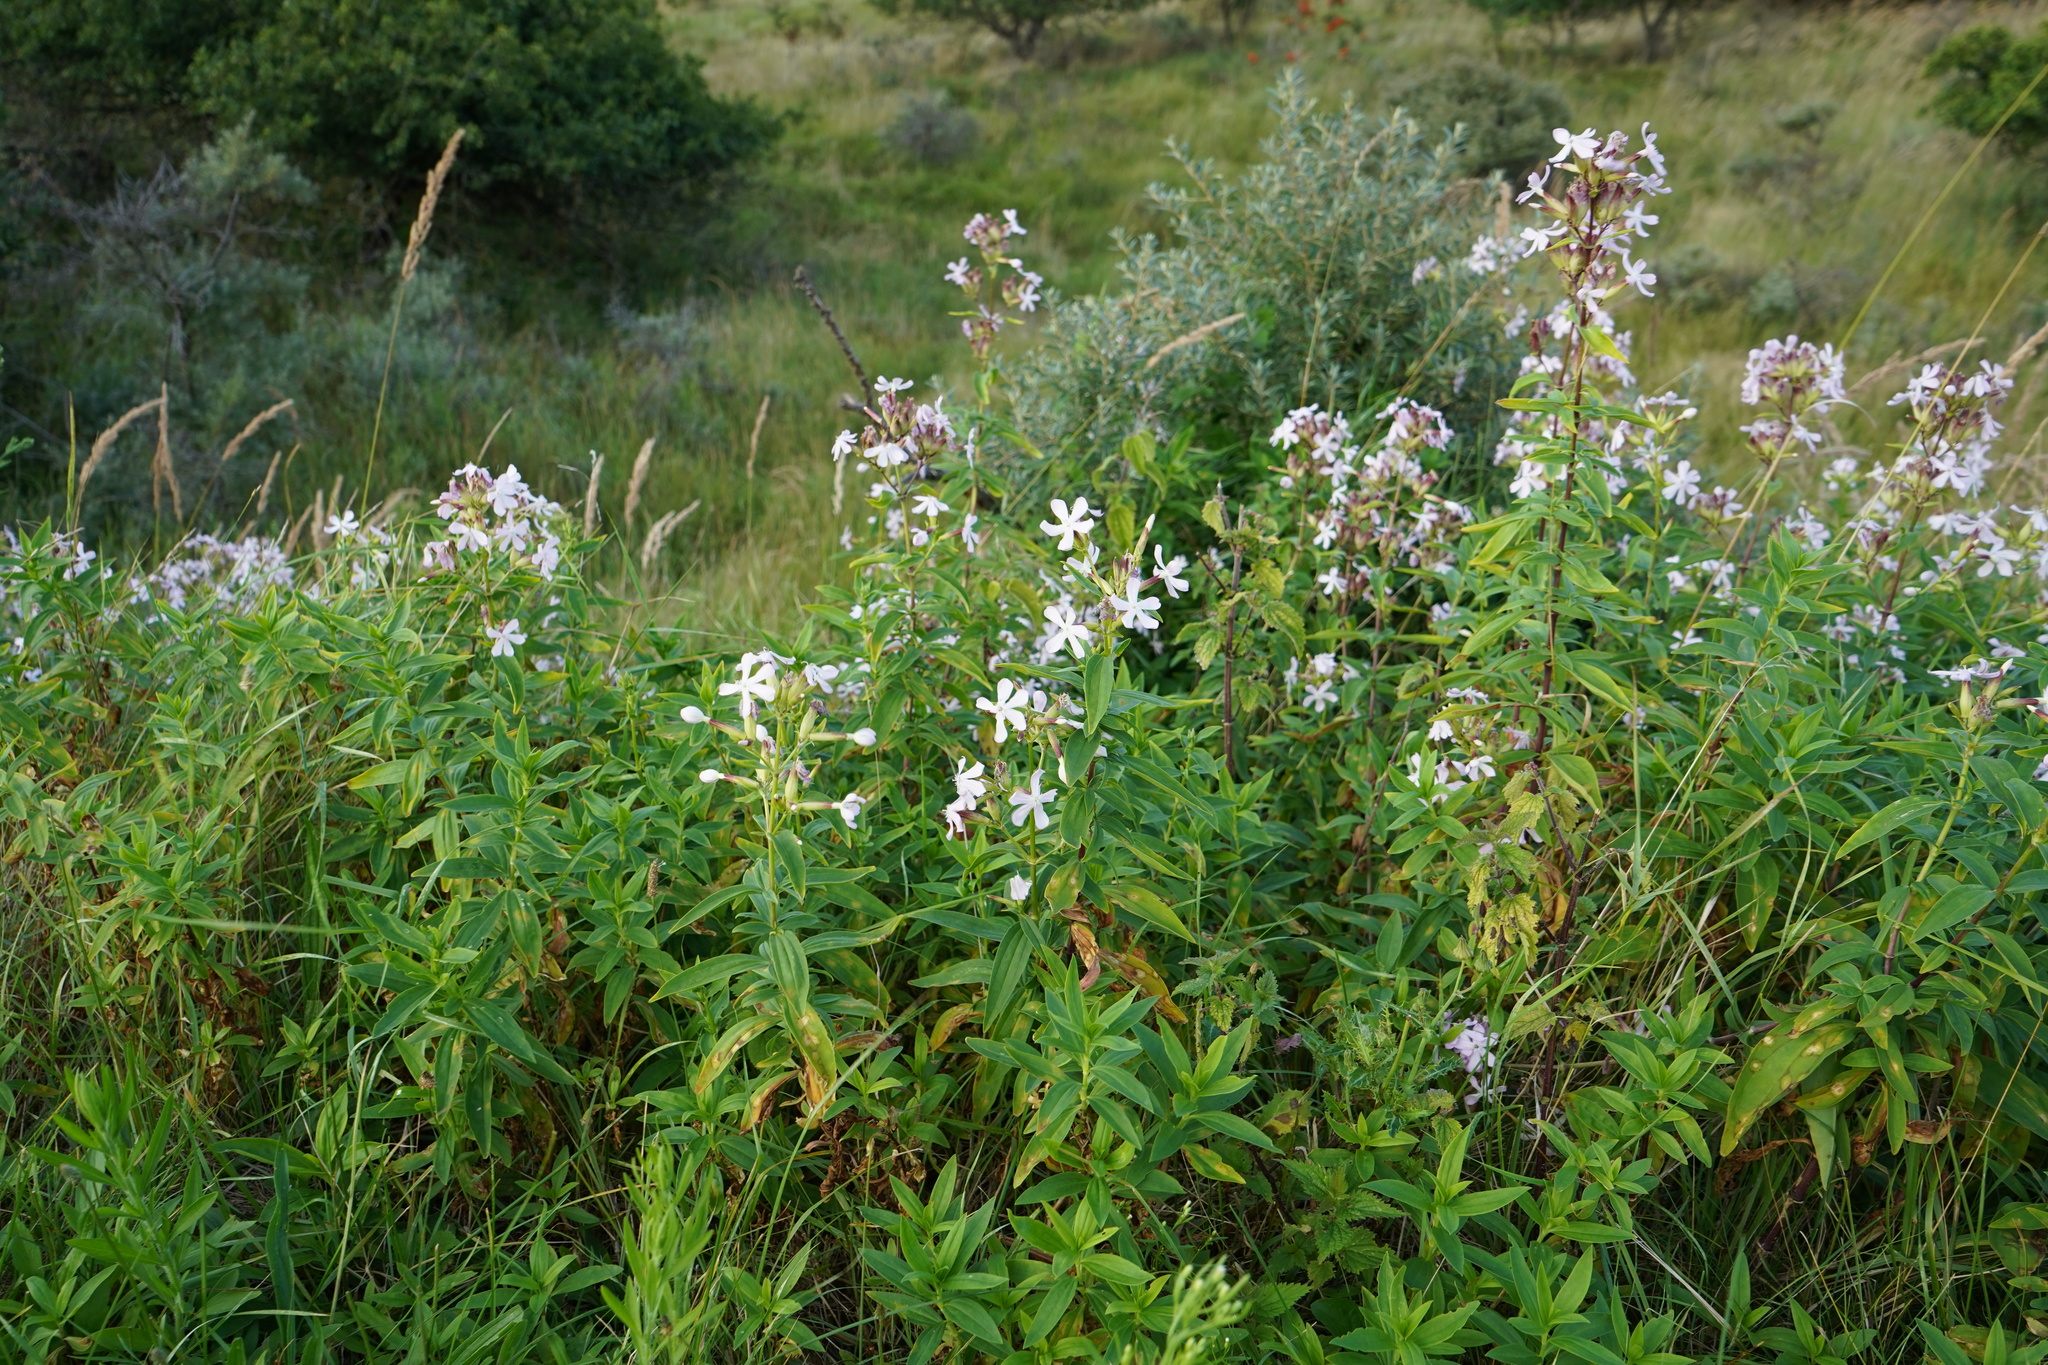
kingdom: Plantae
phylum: Tracheophyta
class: Magnoliopsida
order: Caryophyllales
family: Caryophyllaceae
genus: Saponaria
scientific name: Saponaria officinalis
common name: Soapwort
